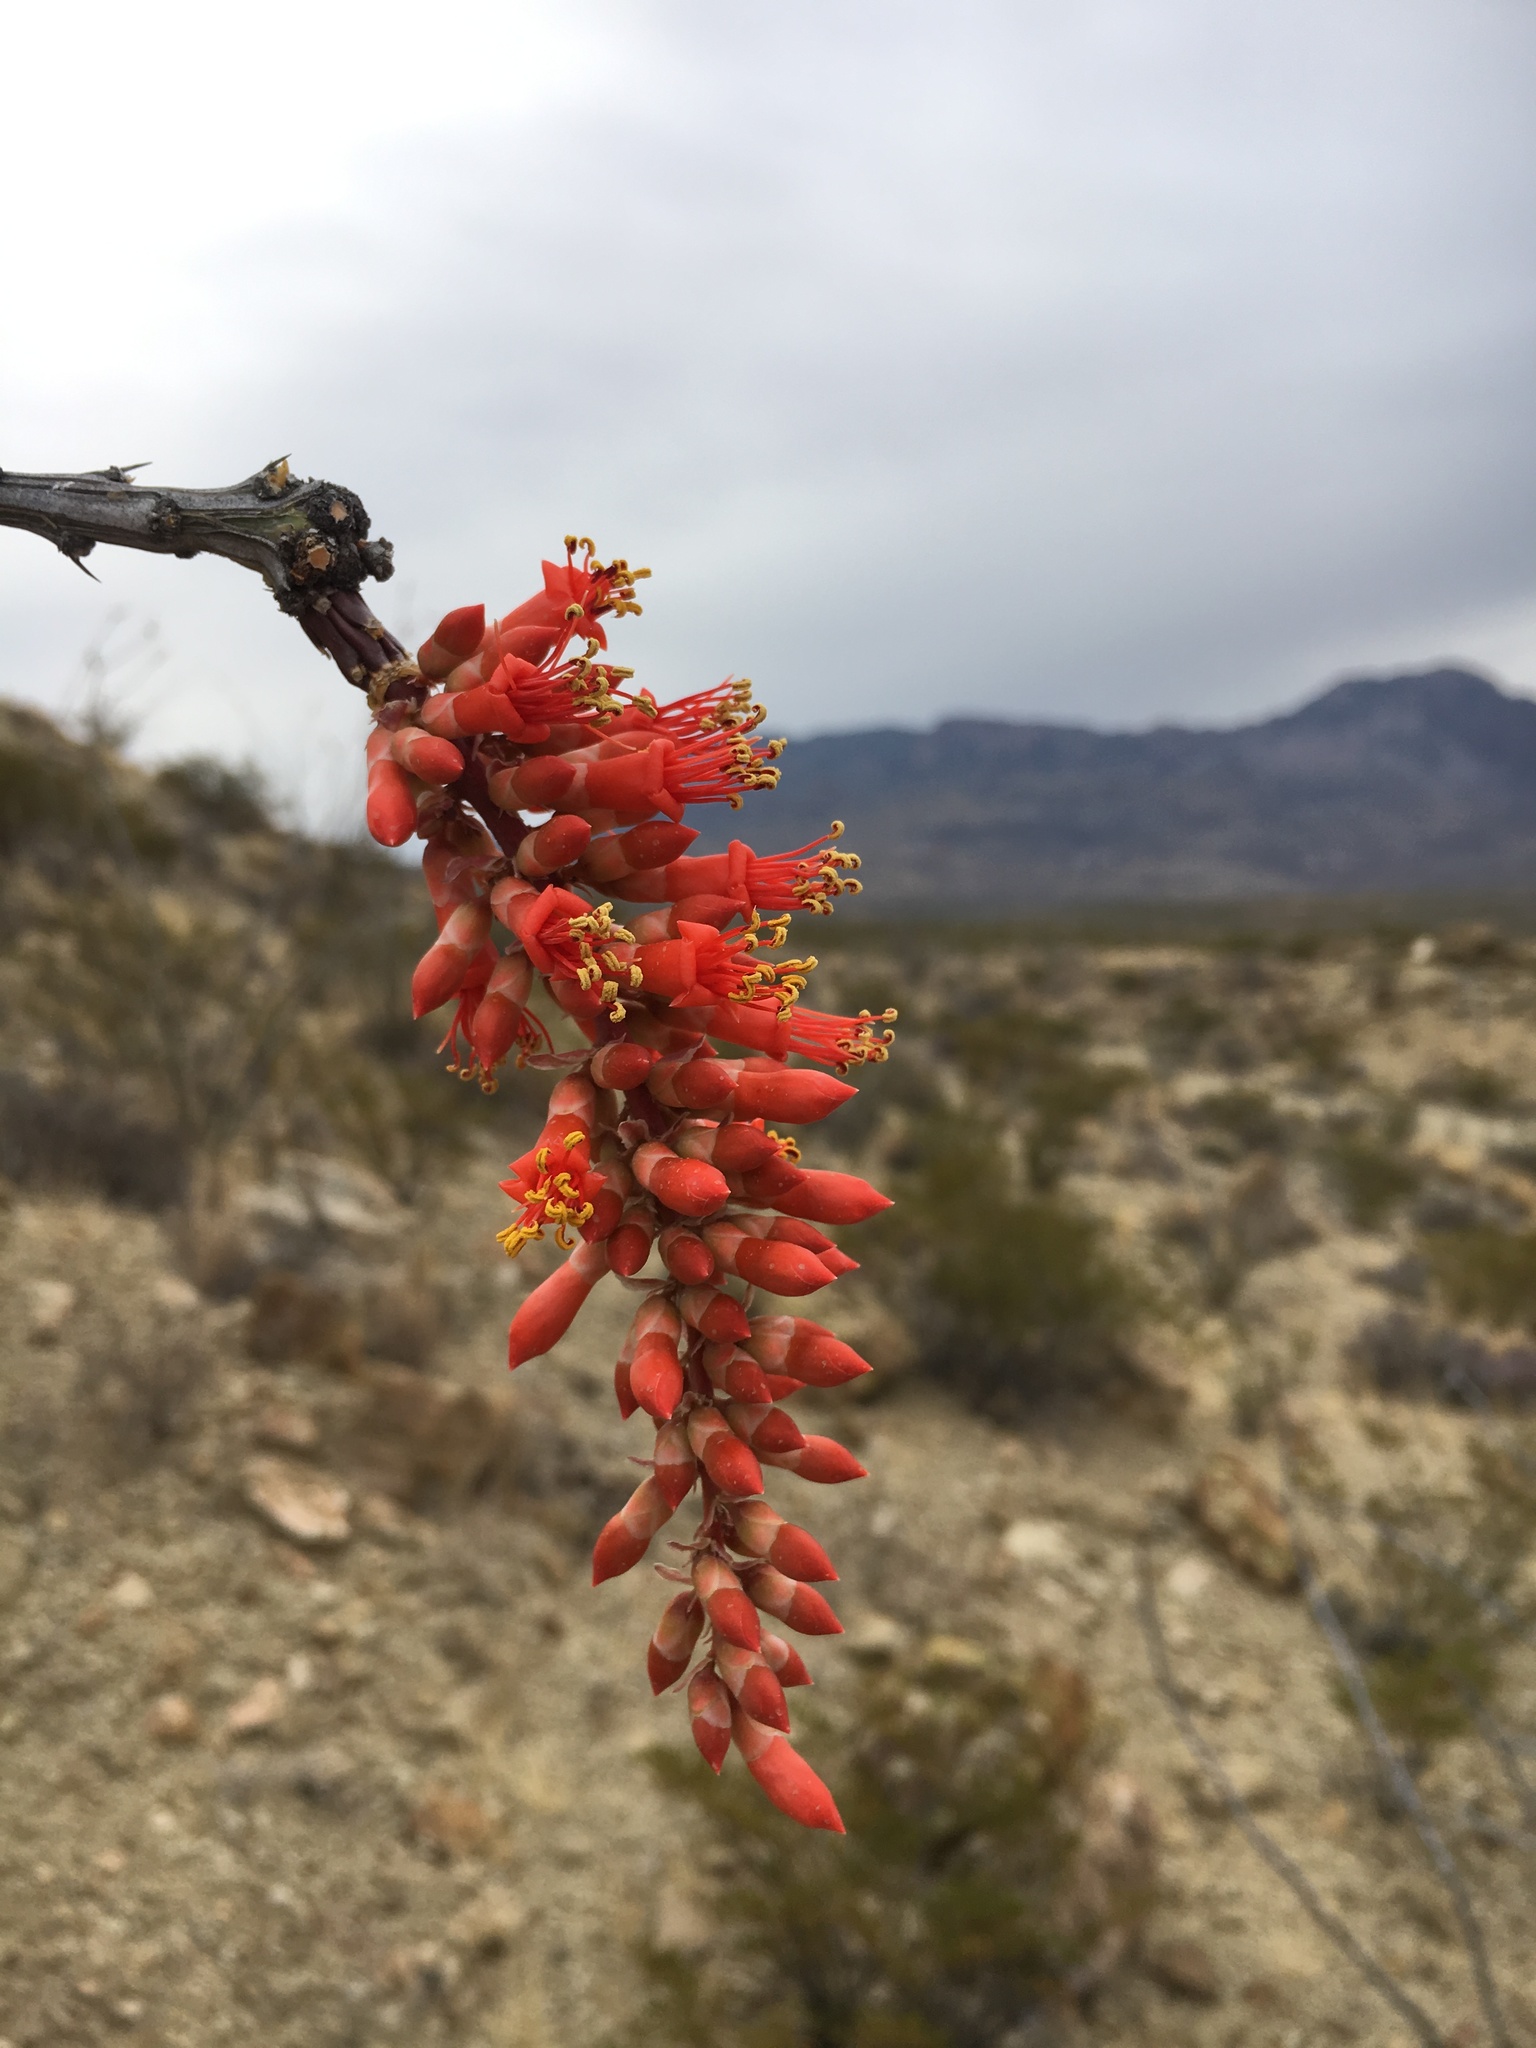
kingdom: Plantae
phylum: Tracheophyta
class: Magnoliopsida
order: Ericales
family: Fouquieriaceae
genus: Fouquieria
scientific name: Fouquieria splendens
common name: Vine-cactus
